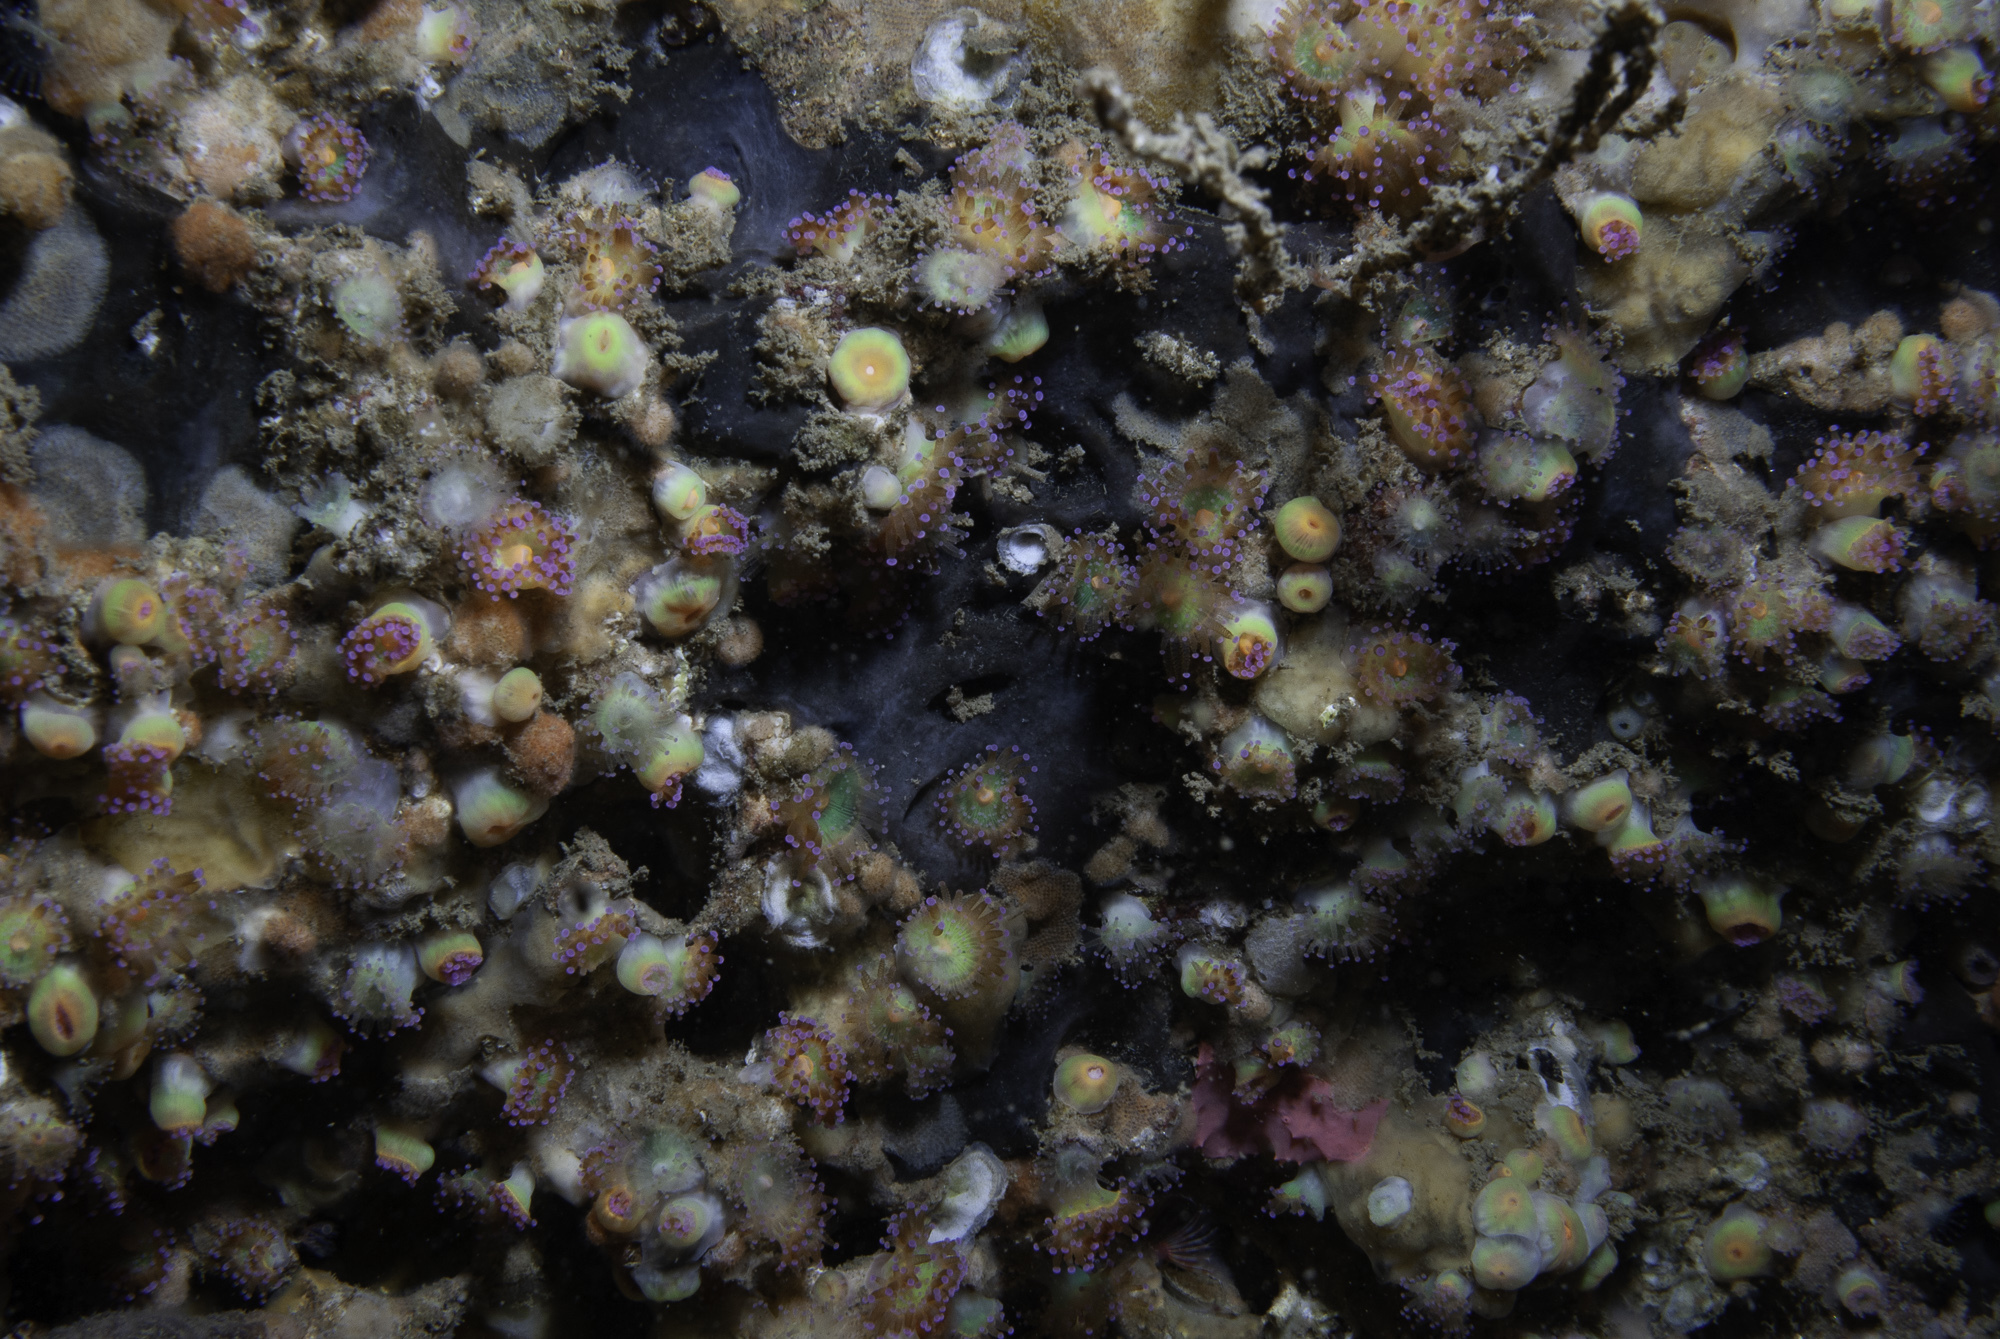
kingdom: Animalia
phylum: Porifera
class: Demospongiae
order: Tetractinellida
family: Ancorinidae
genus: Dercitus
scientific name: Dercitus bucklandi
